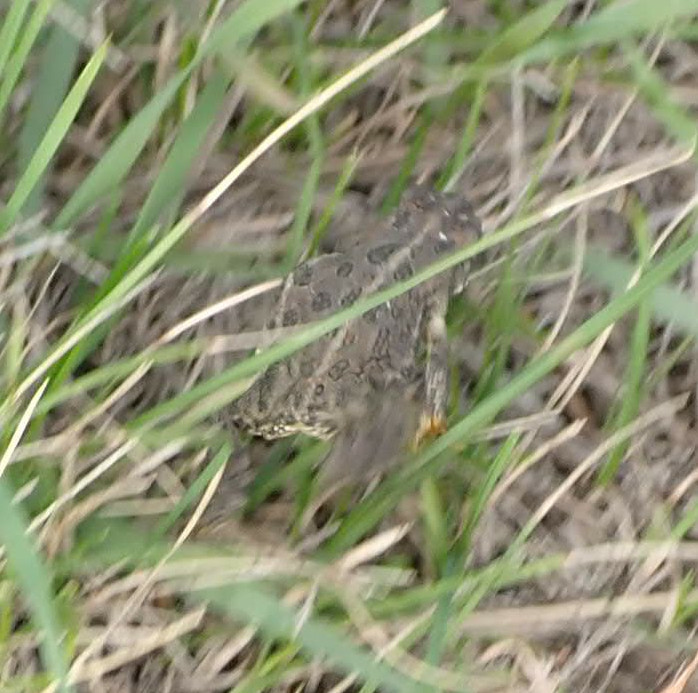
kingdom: Animalia
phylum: Chordata
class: Amphibia
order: Anura
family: Bufonidae
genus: Anaxyrus
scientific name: Anaxyrus hemiophrys
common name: Canadian toad
